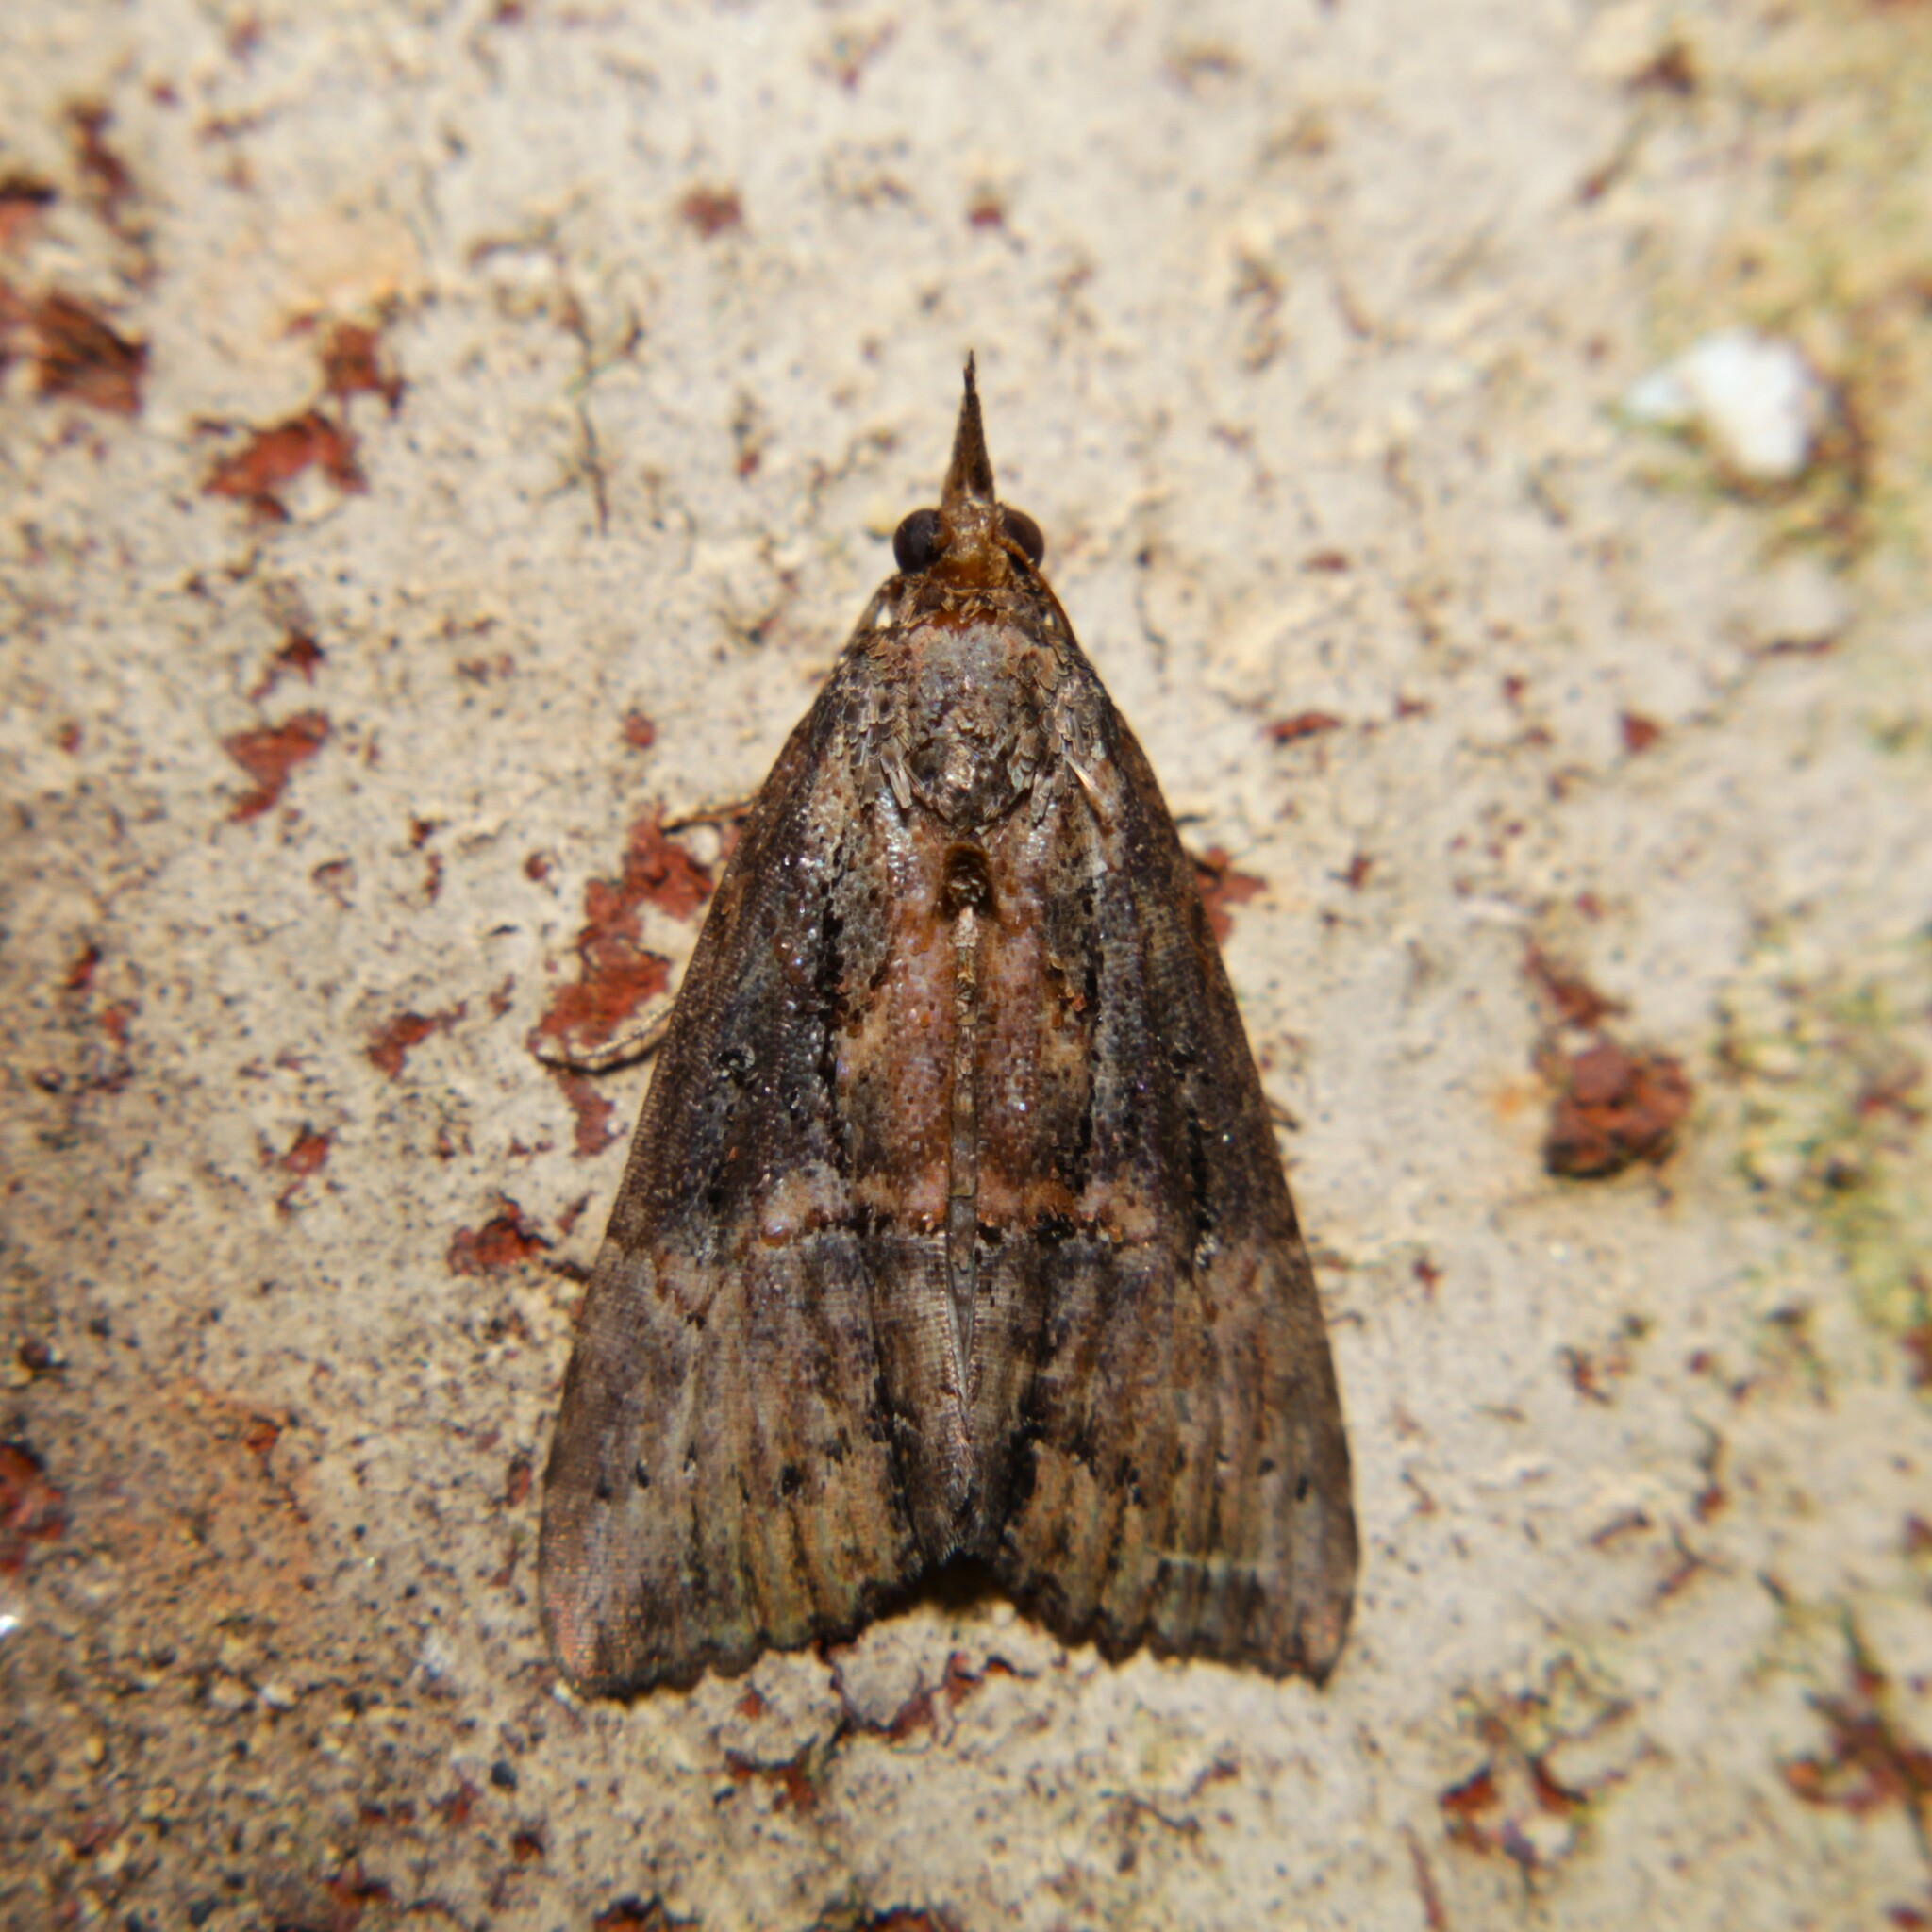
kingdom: Animalia
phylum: Arthropoda
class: Insecta
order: Lepidoptera
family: Erebidae
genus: Hypena
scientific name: Hypena scabra
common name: Green cloverworm
